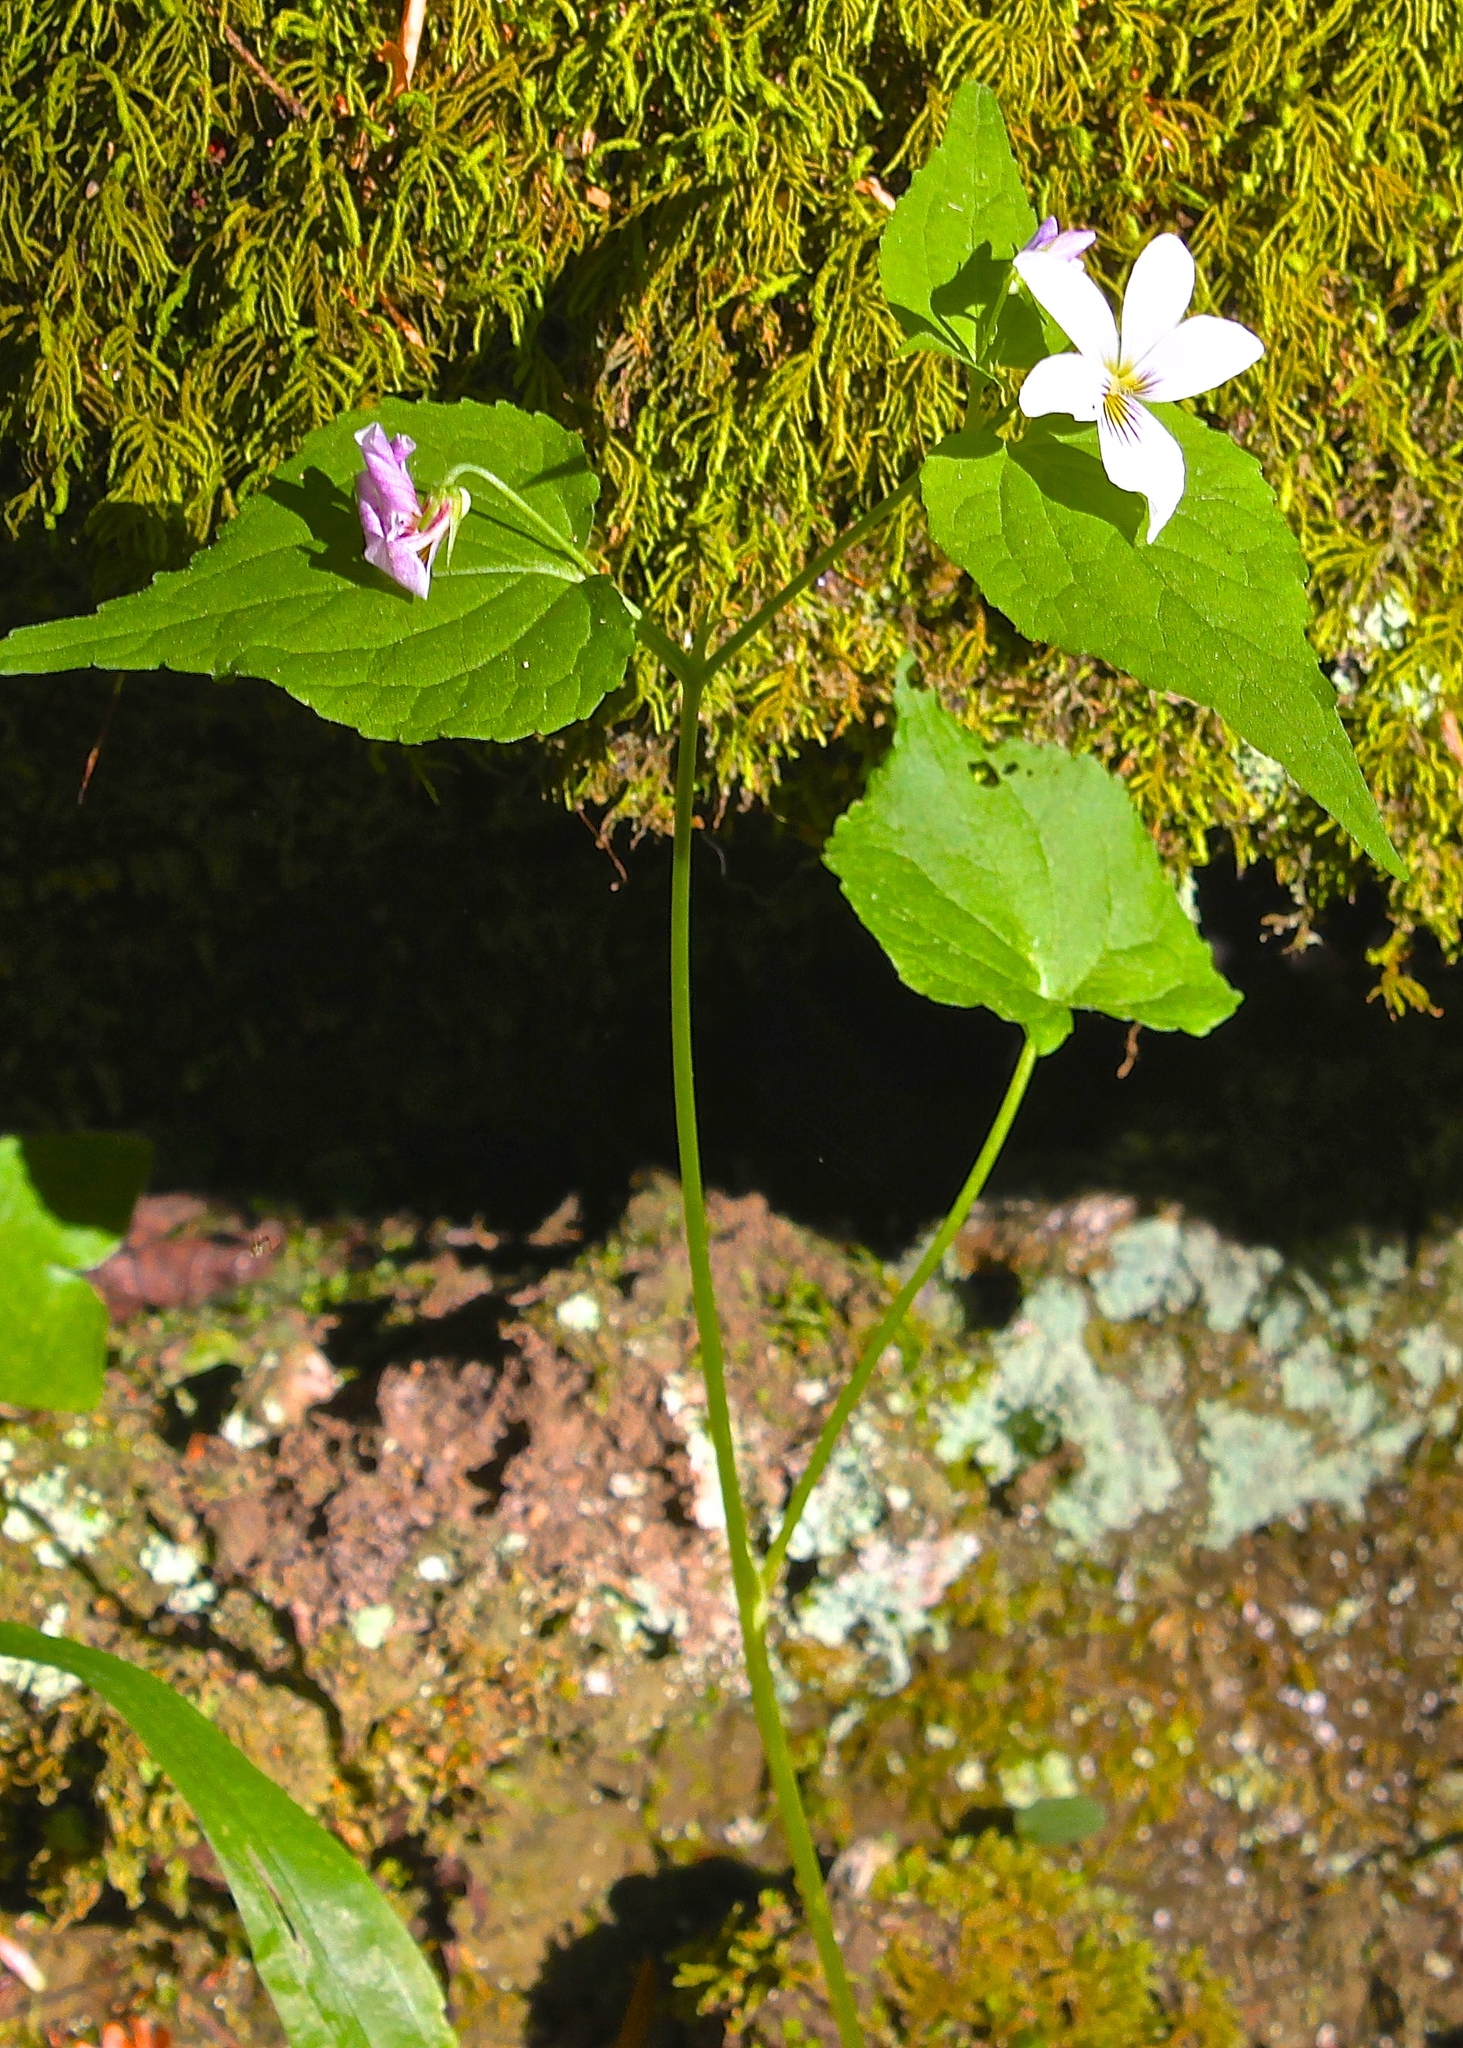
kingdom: Plantae
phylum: Tracheophyta
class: Magnoliopsida
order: Malpighiales
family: Violaceae
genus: Viola
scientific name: Viola canadensis
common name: Canada violet
